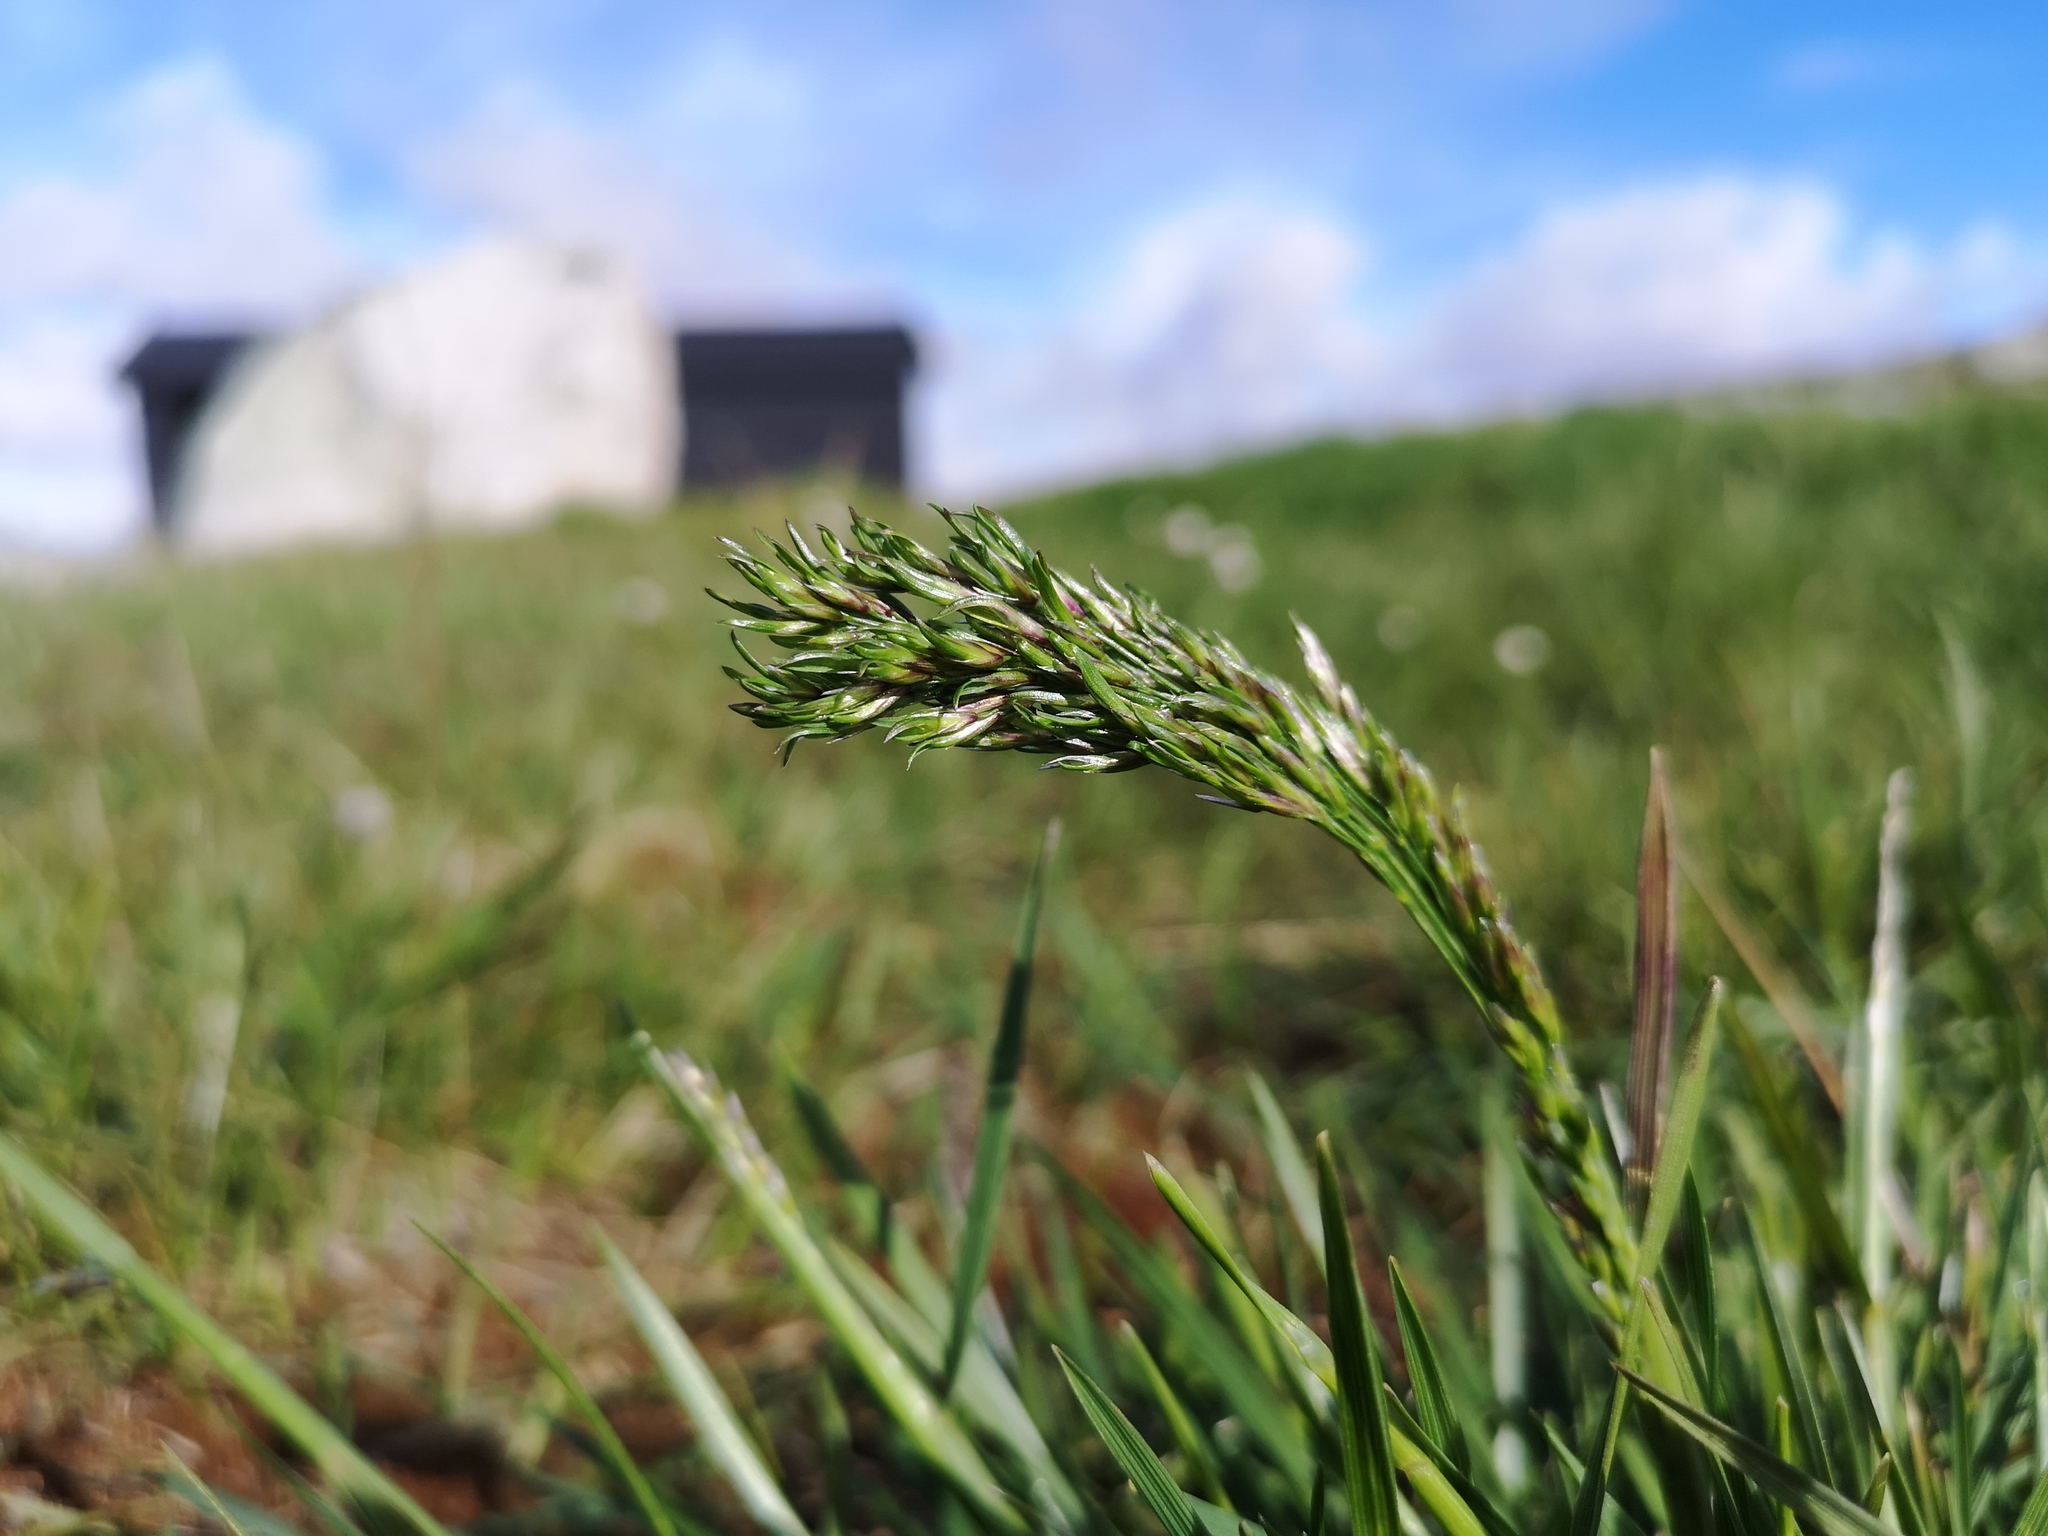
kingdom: Plantae
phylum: Tracheophyta
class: Liliopsida
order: Poales
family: Poaceae
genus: Poa
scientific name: Poa alpina
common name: Alpine bluegrass
